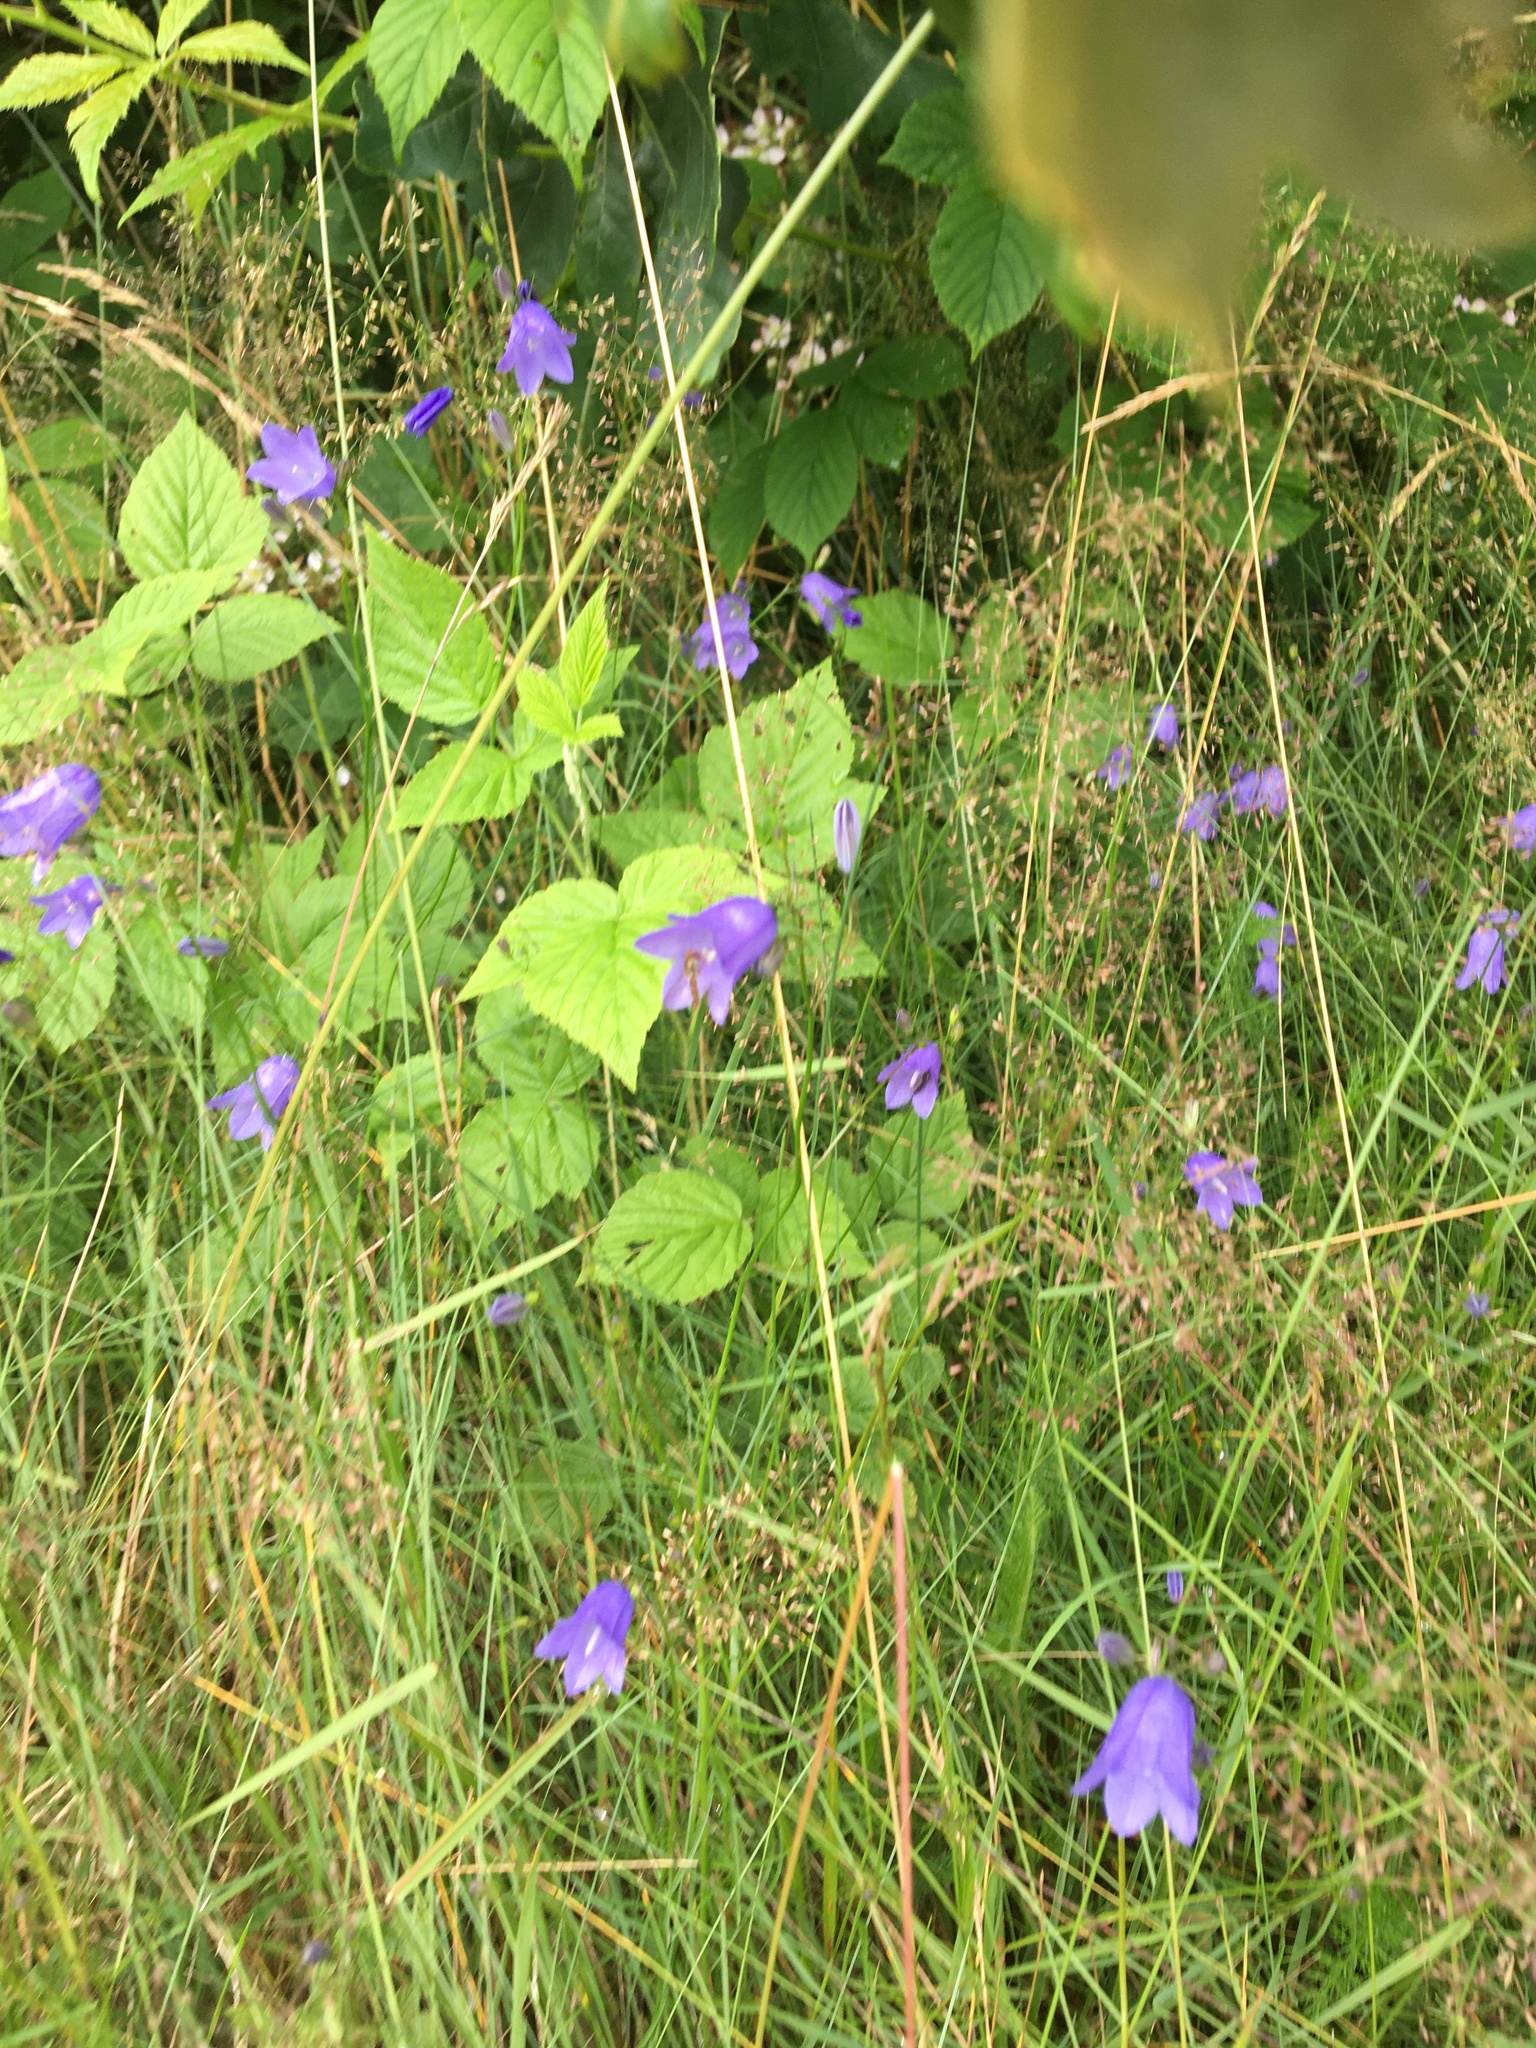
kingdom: Plantae
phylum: Tracheophyta
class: Magnoliopsida
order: Asterales
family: Campanulaceae
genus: Campanula
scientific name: Campanula rotundifolia
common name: Harebell
